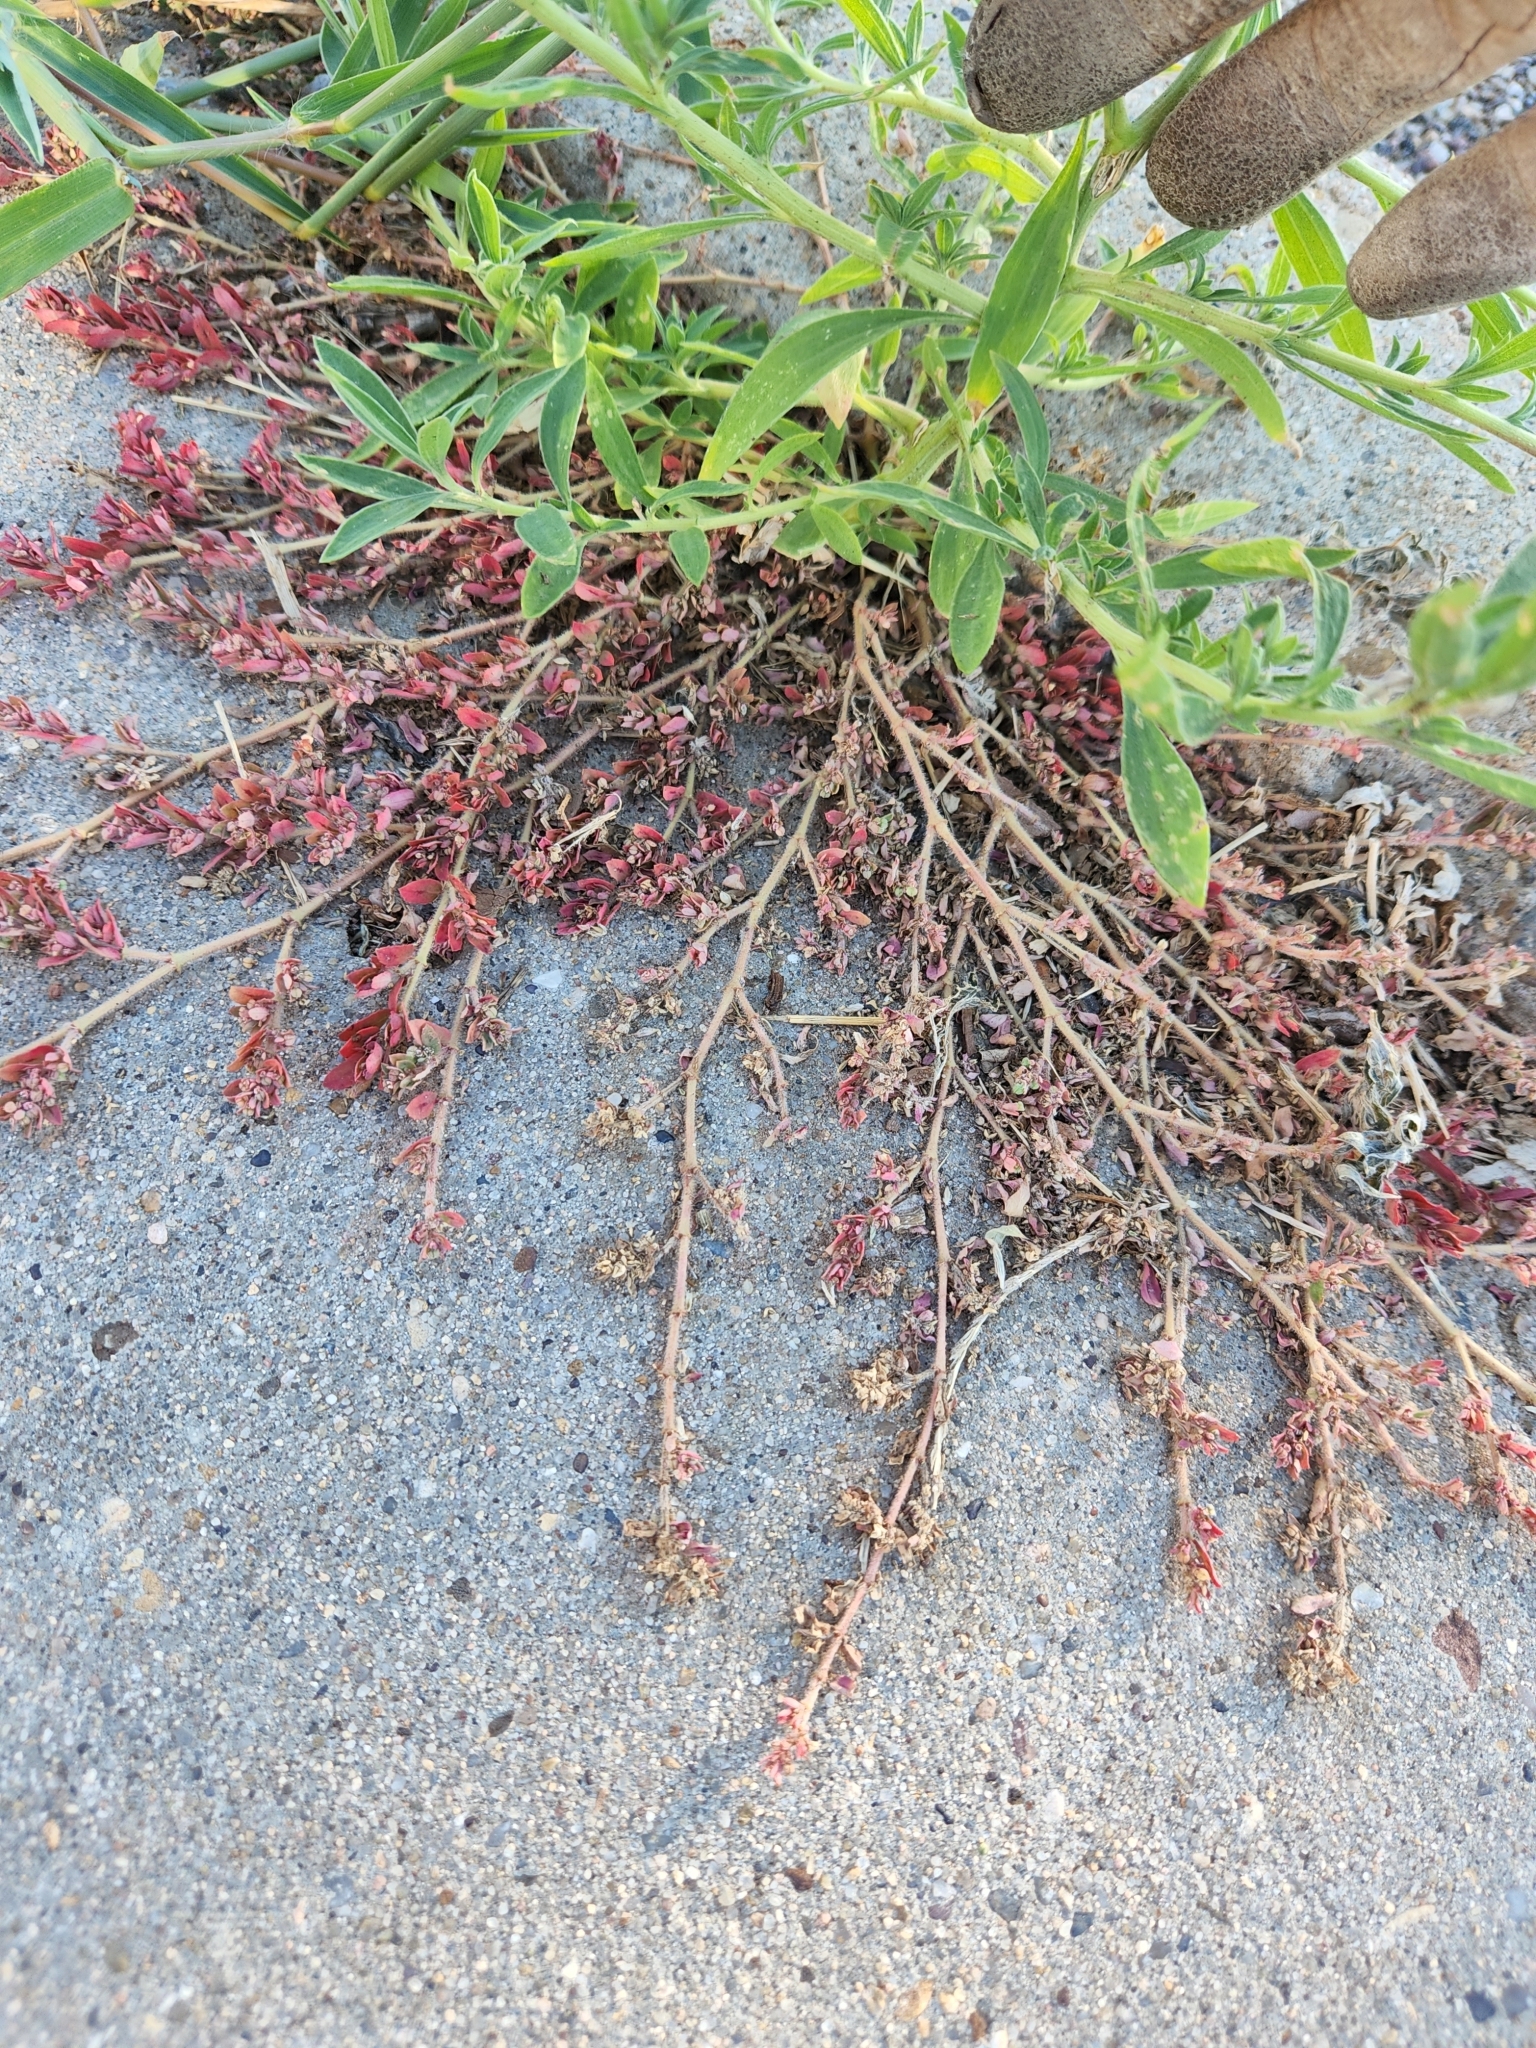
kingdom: Plantae
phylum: Tracheophyta
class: Magnoliopsida
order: Malpighiales
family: Euphorbiaceae
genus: Euphorbia
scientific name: Euphorbia maculata
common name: Spotted spurge
